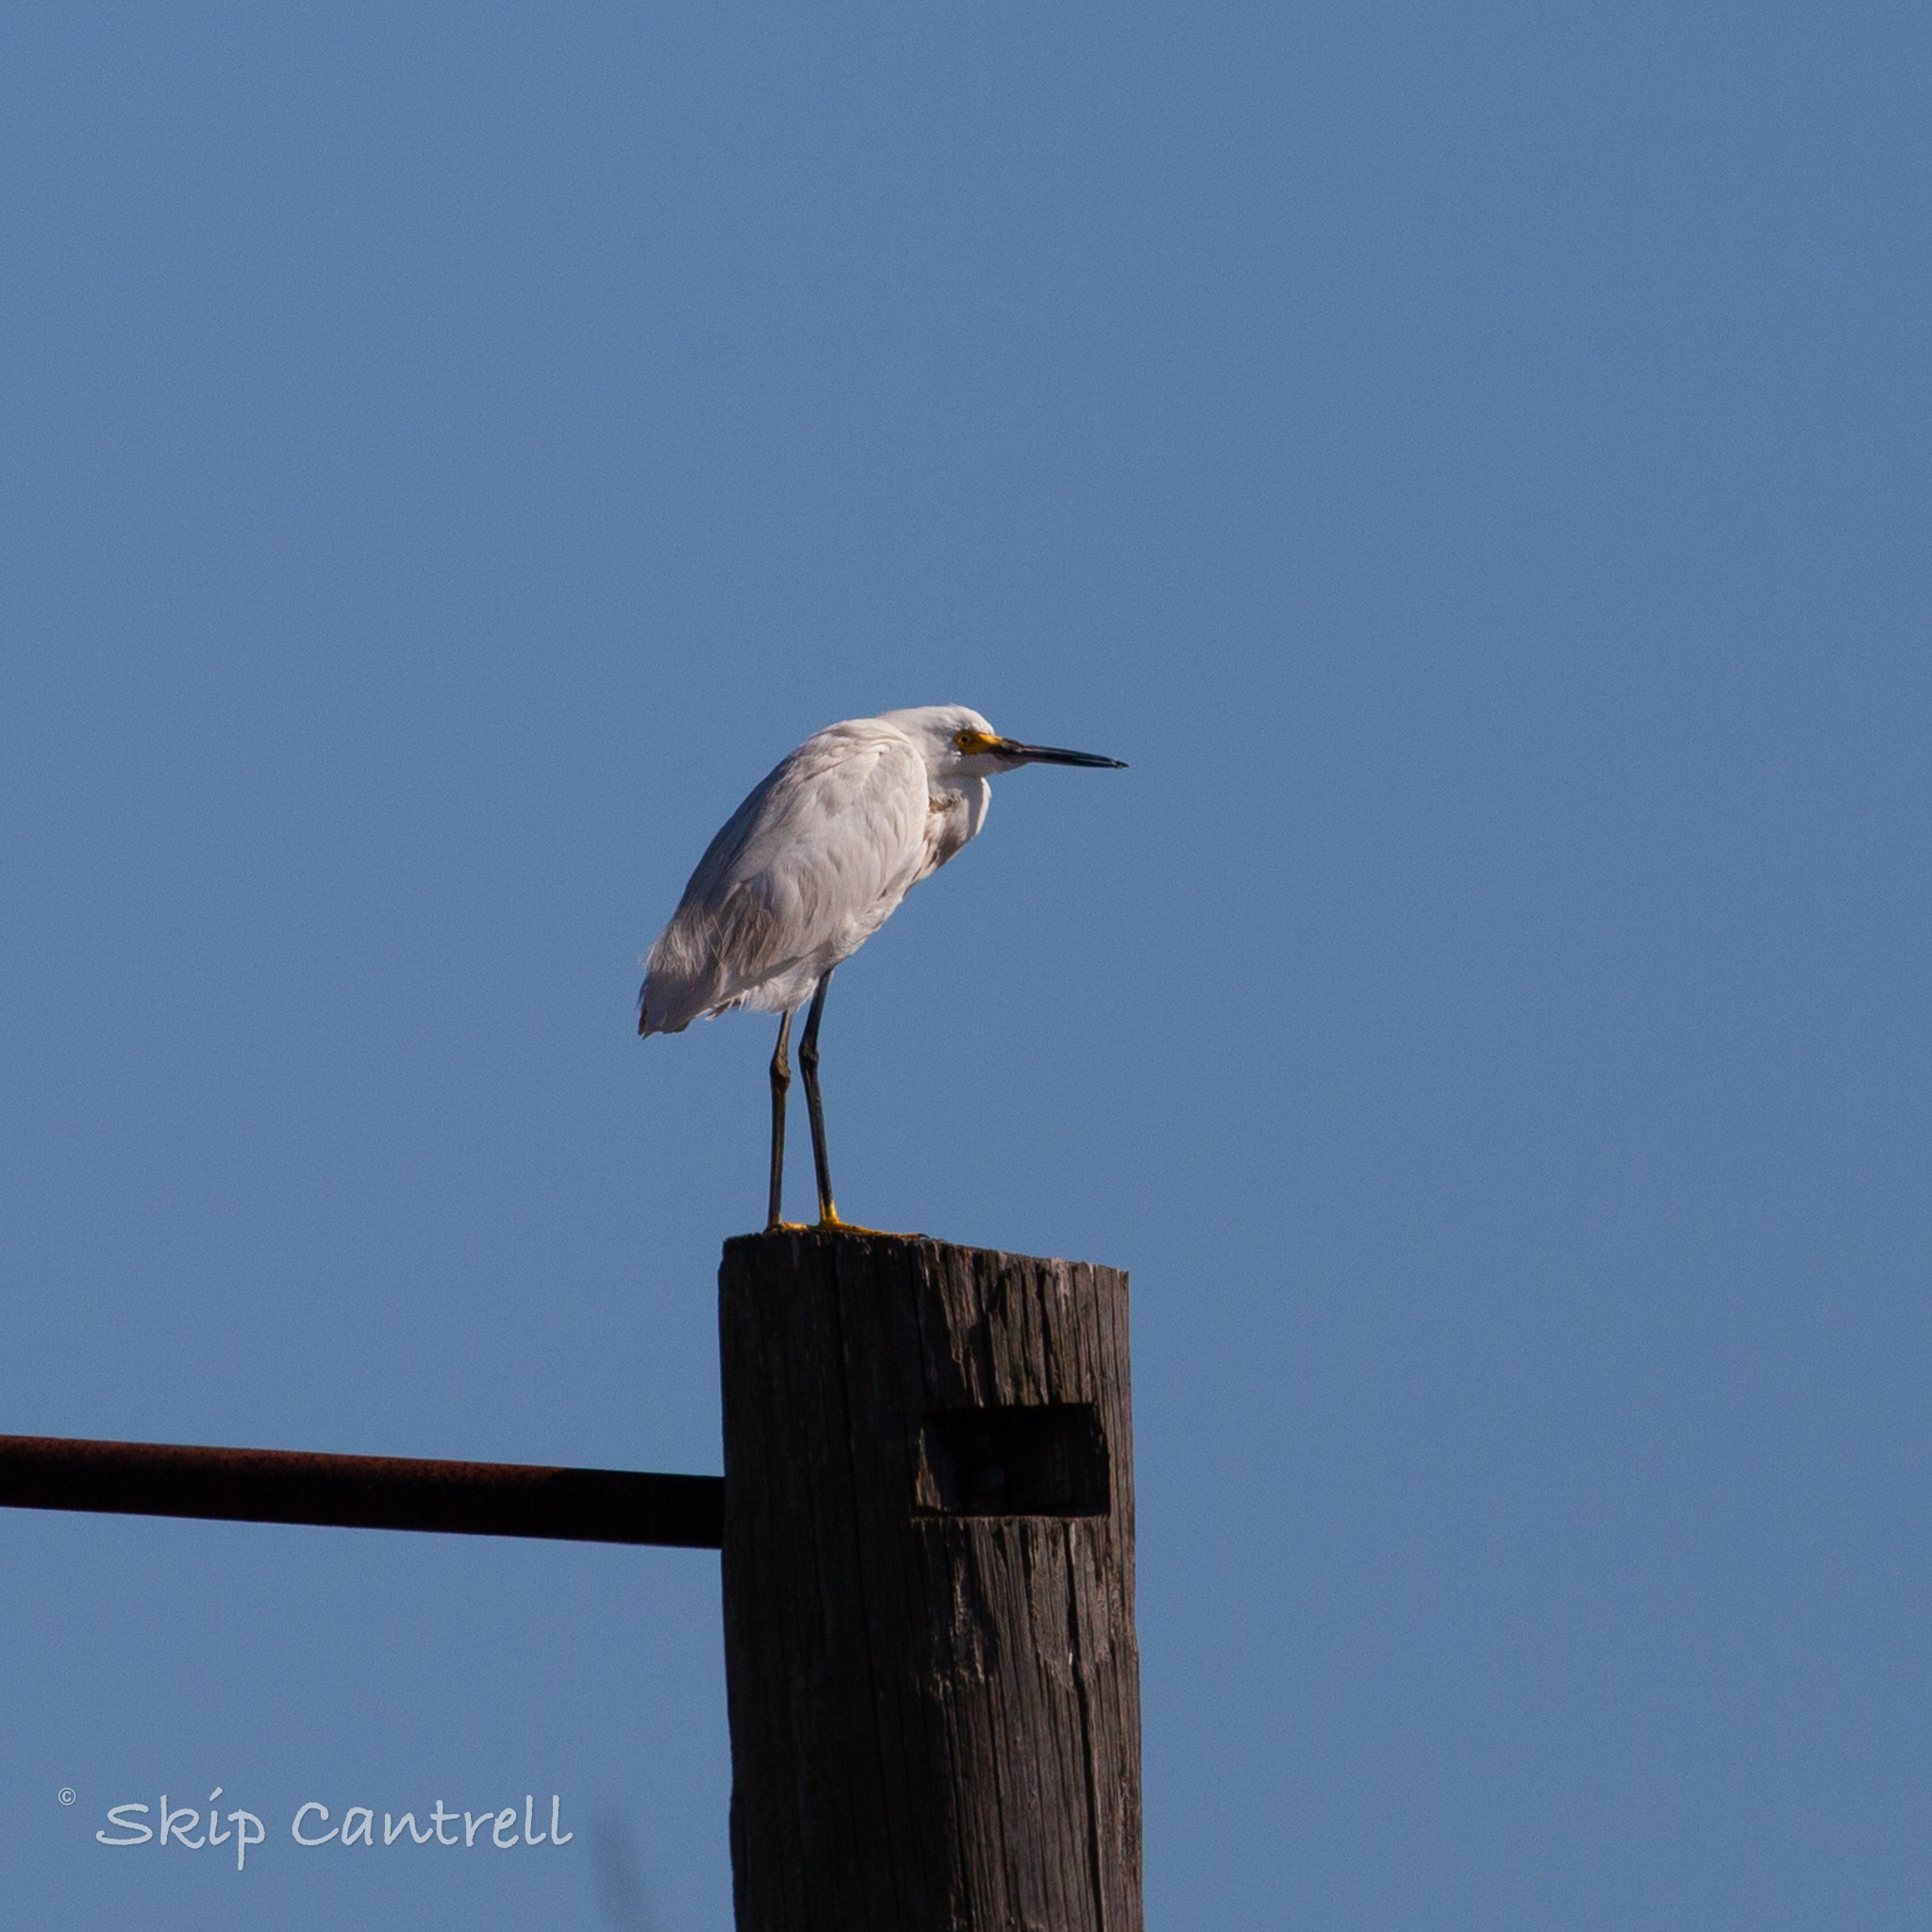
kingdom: Animalia
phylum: Chordata
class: Aves
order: Pelecaniformes
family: Ardeidae
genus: Egretta
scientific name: Egretta thula
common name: Snowy egret
